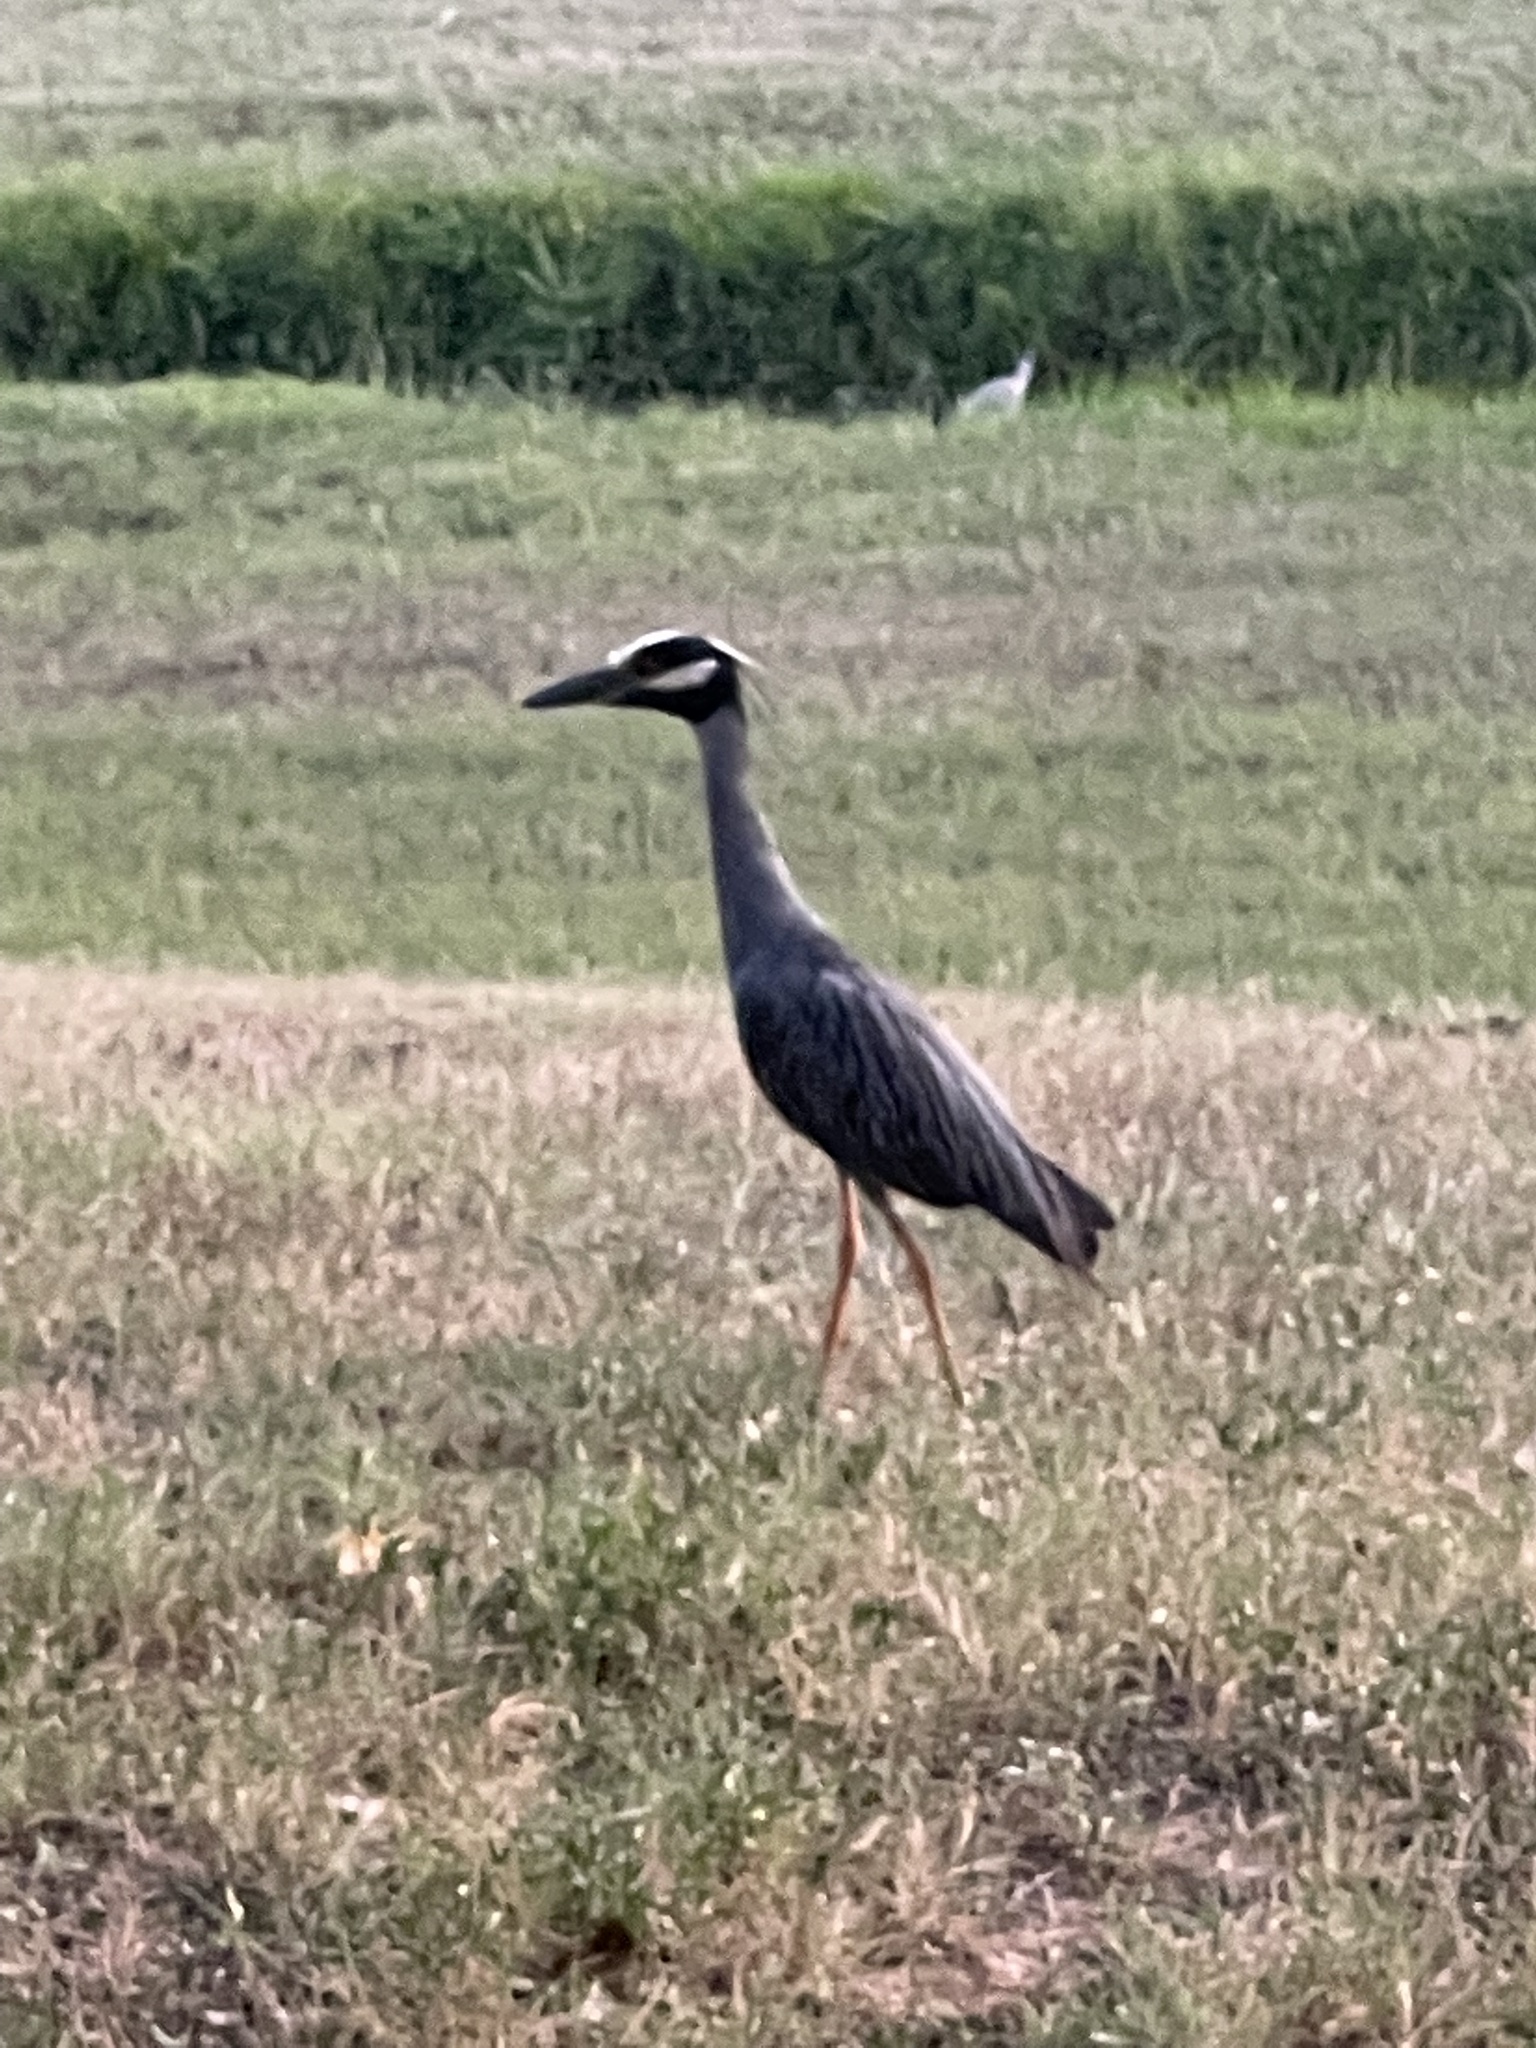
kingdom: Animalia
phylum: Chordata
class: Aves
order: Pelecaniformes
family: Ardeidae
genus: Nyctanassa
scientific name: Nyctanassa violacea
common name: Yellow-crowned night heron
